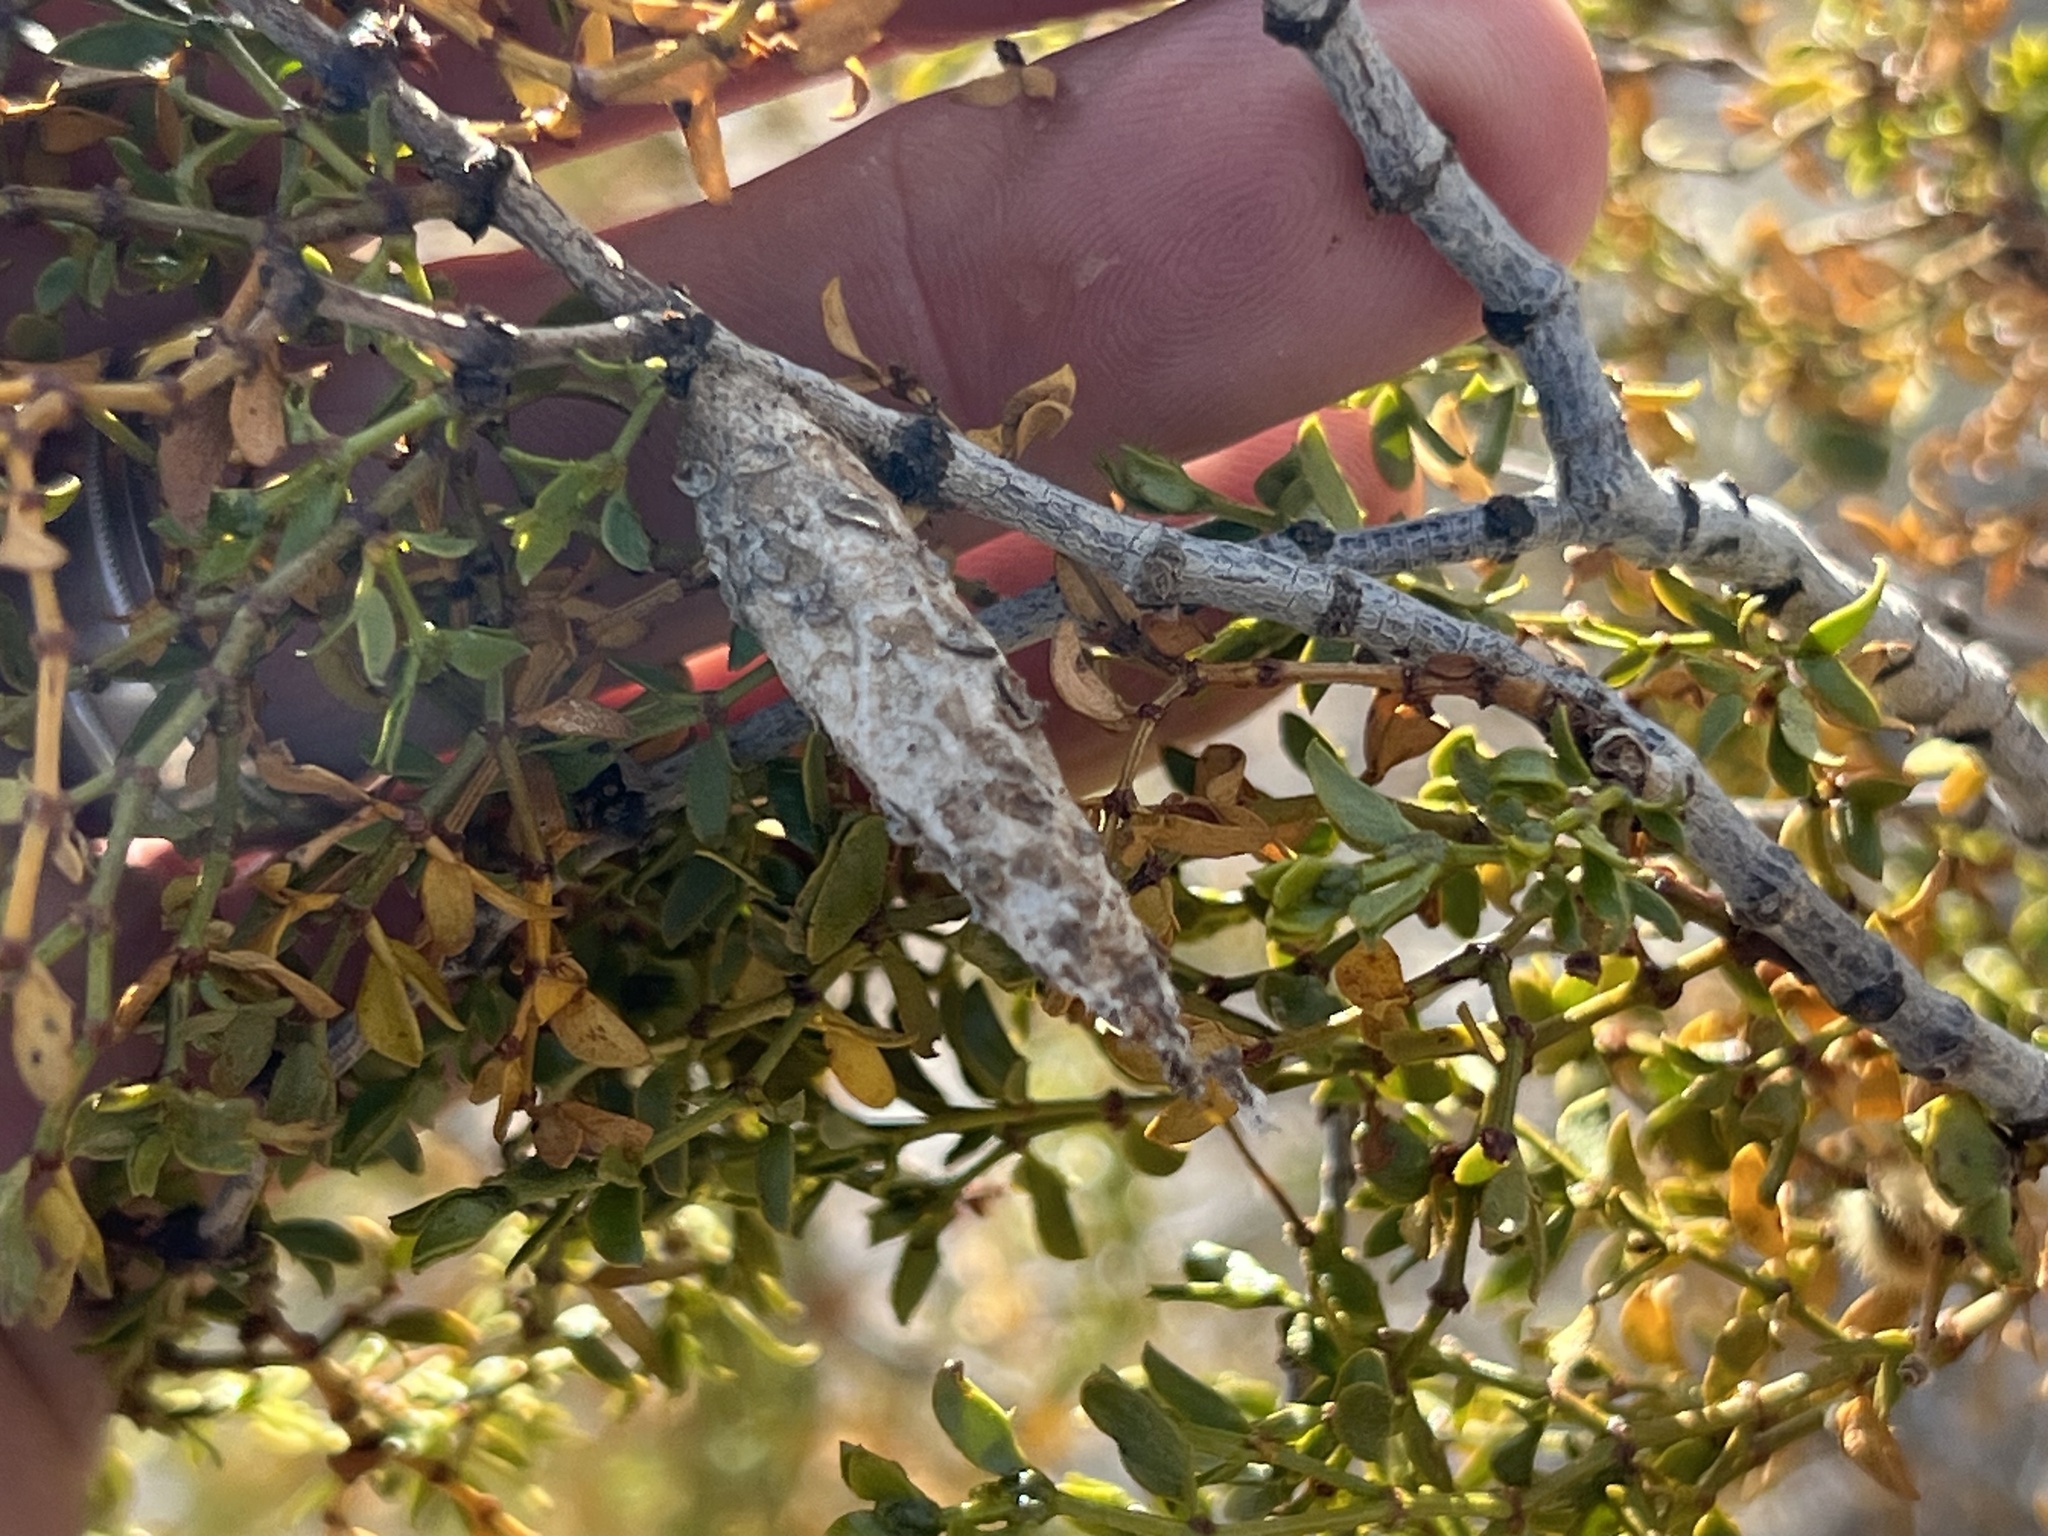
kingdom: Animalia
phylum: Arthropoda
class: Insecta
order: Lepidoptera
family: Psychidae
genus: Thyridopteryx
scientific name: Thyridopteryx meadii
